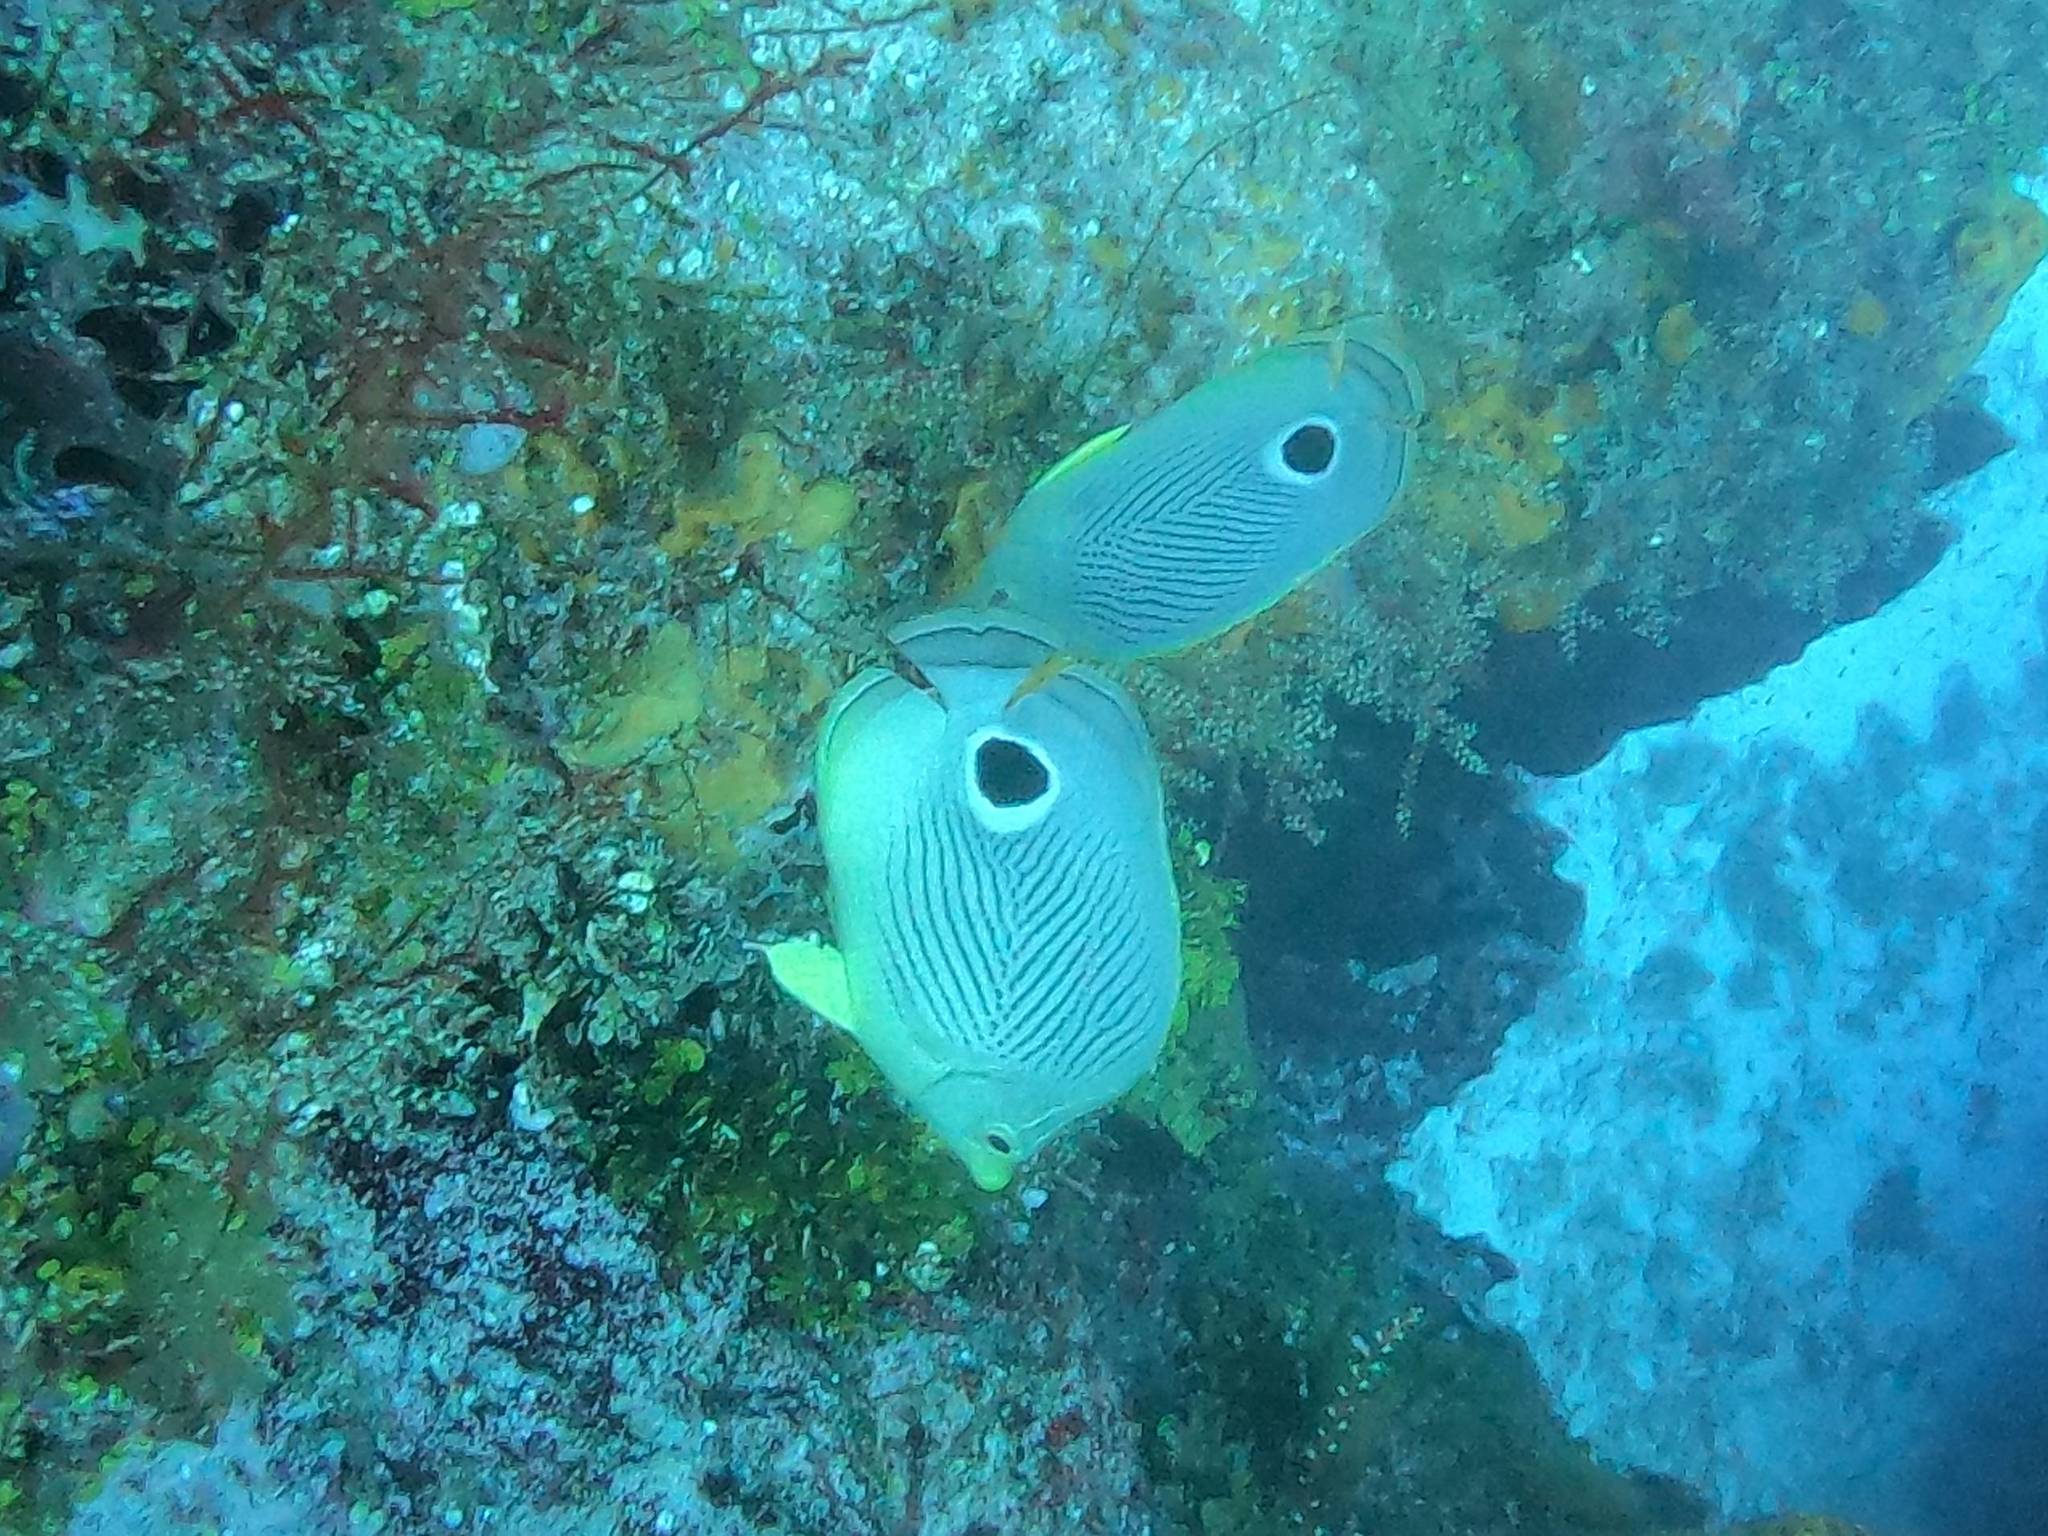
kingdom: Animalia
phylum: Chordata
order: Perciformes
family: Chaetodontidae
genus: Chaetodon
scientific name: Chaetodon capistratus
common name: Kete
